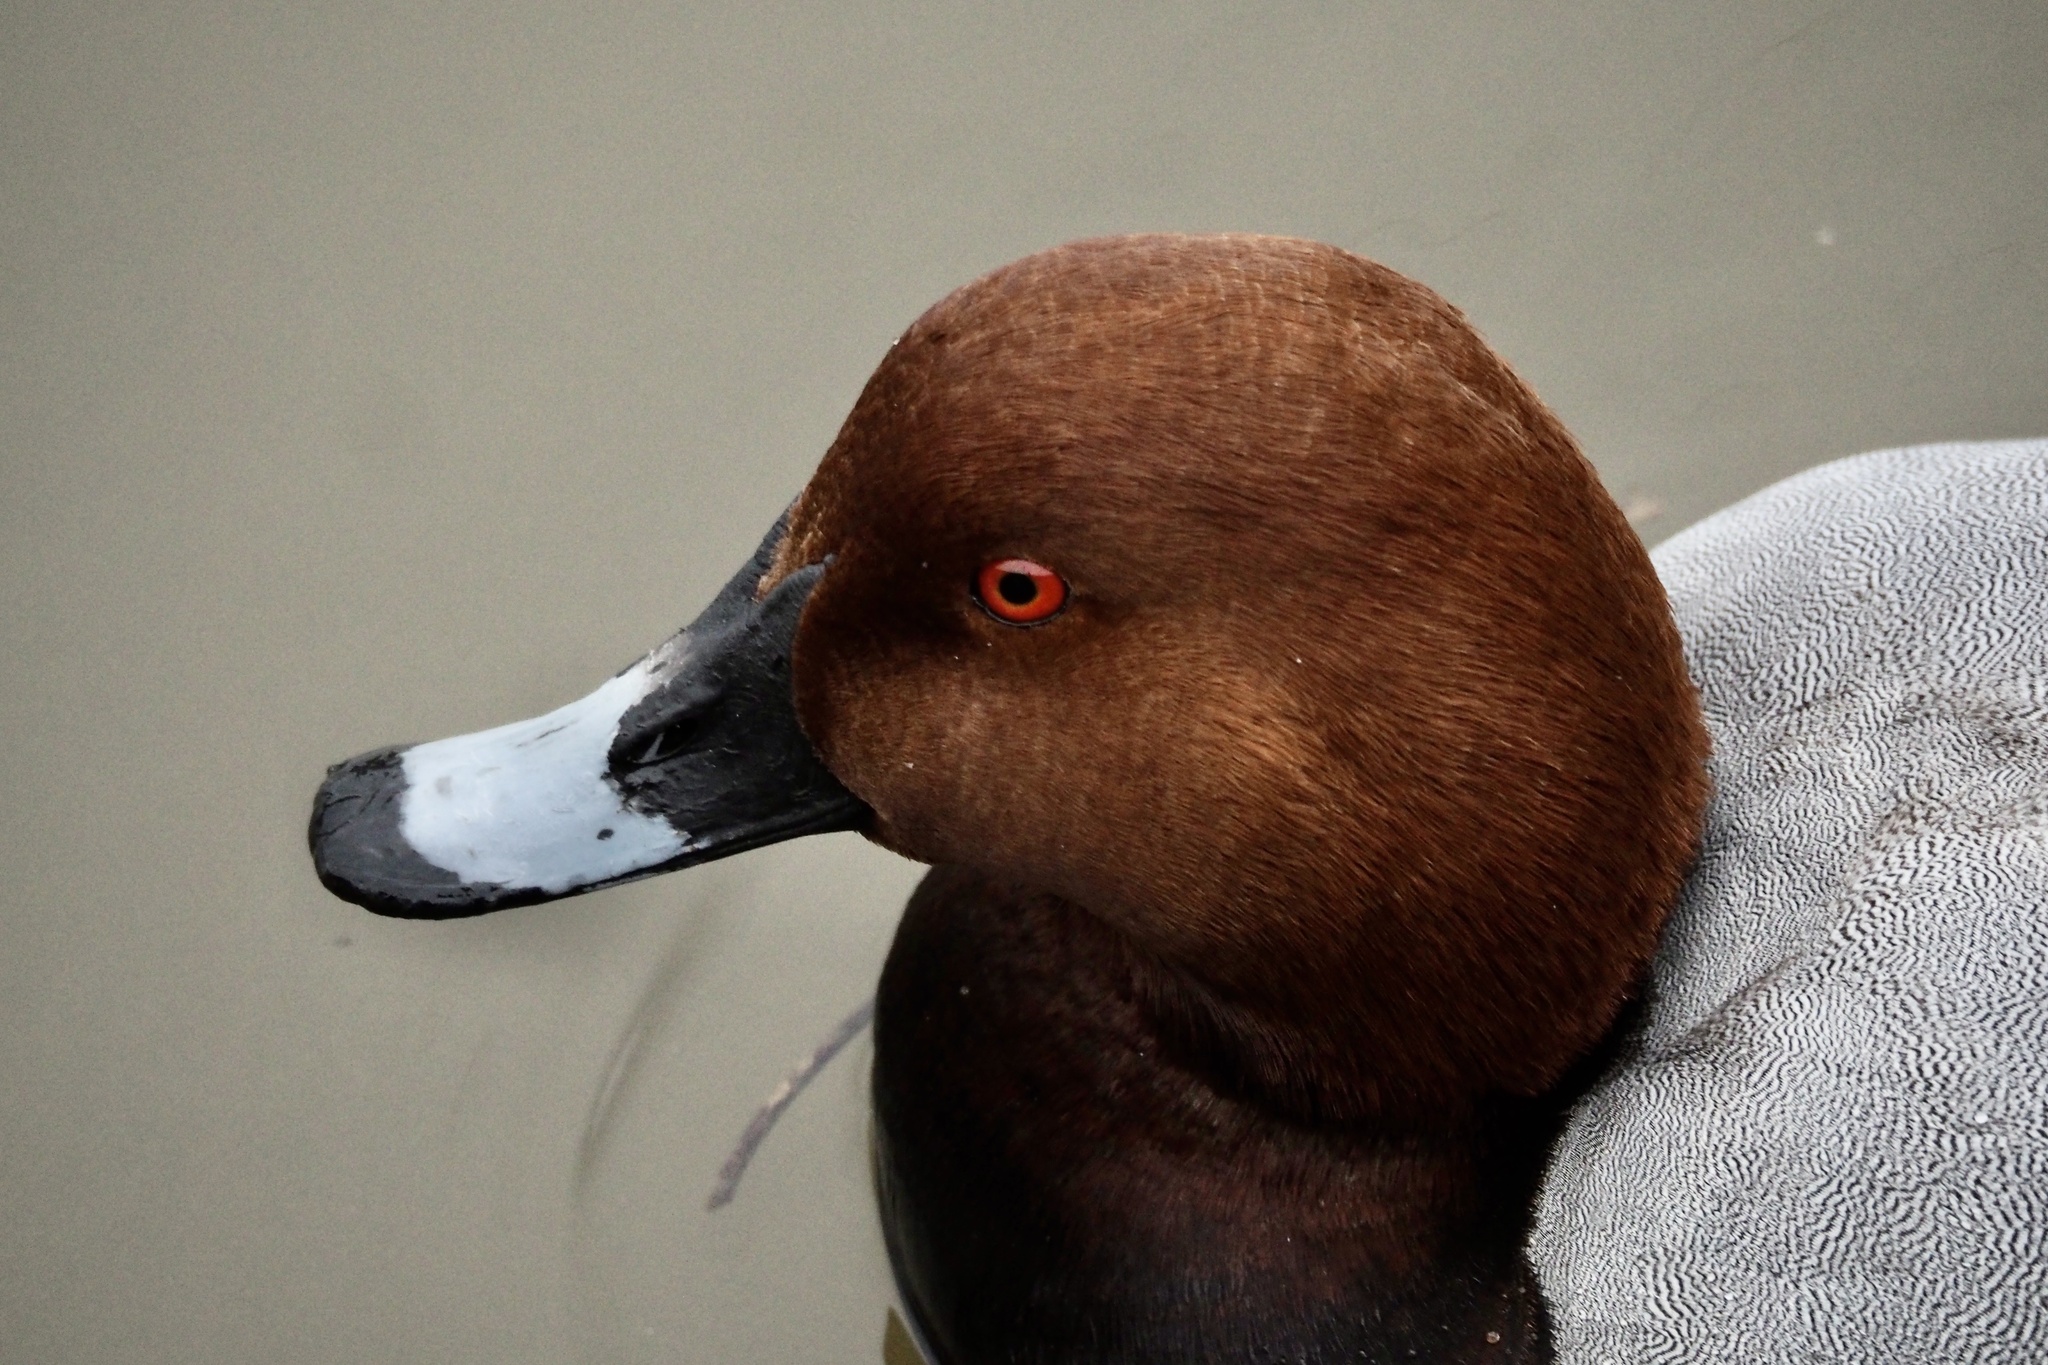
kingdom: Animalia
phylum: Chordata
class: Aves
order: Anseriformes
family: Anatidae
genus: Aythya
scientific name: Aythya ferina
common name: Common pochard
